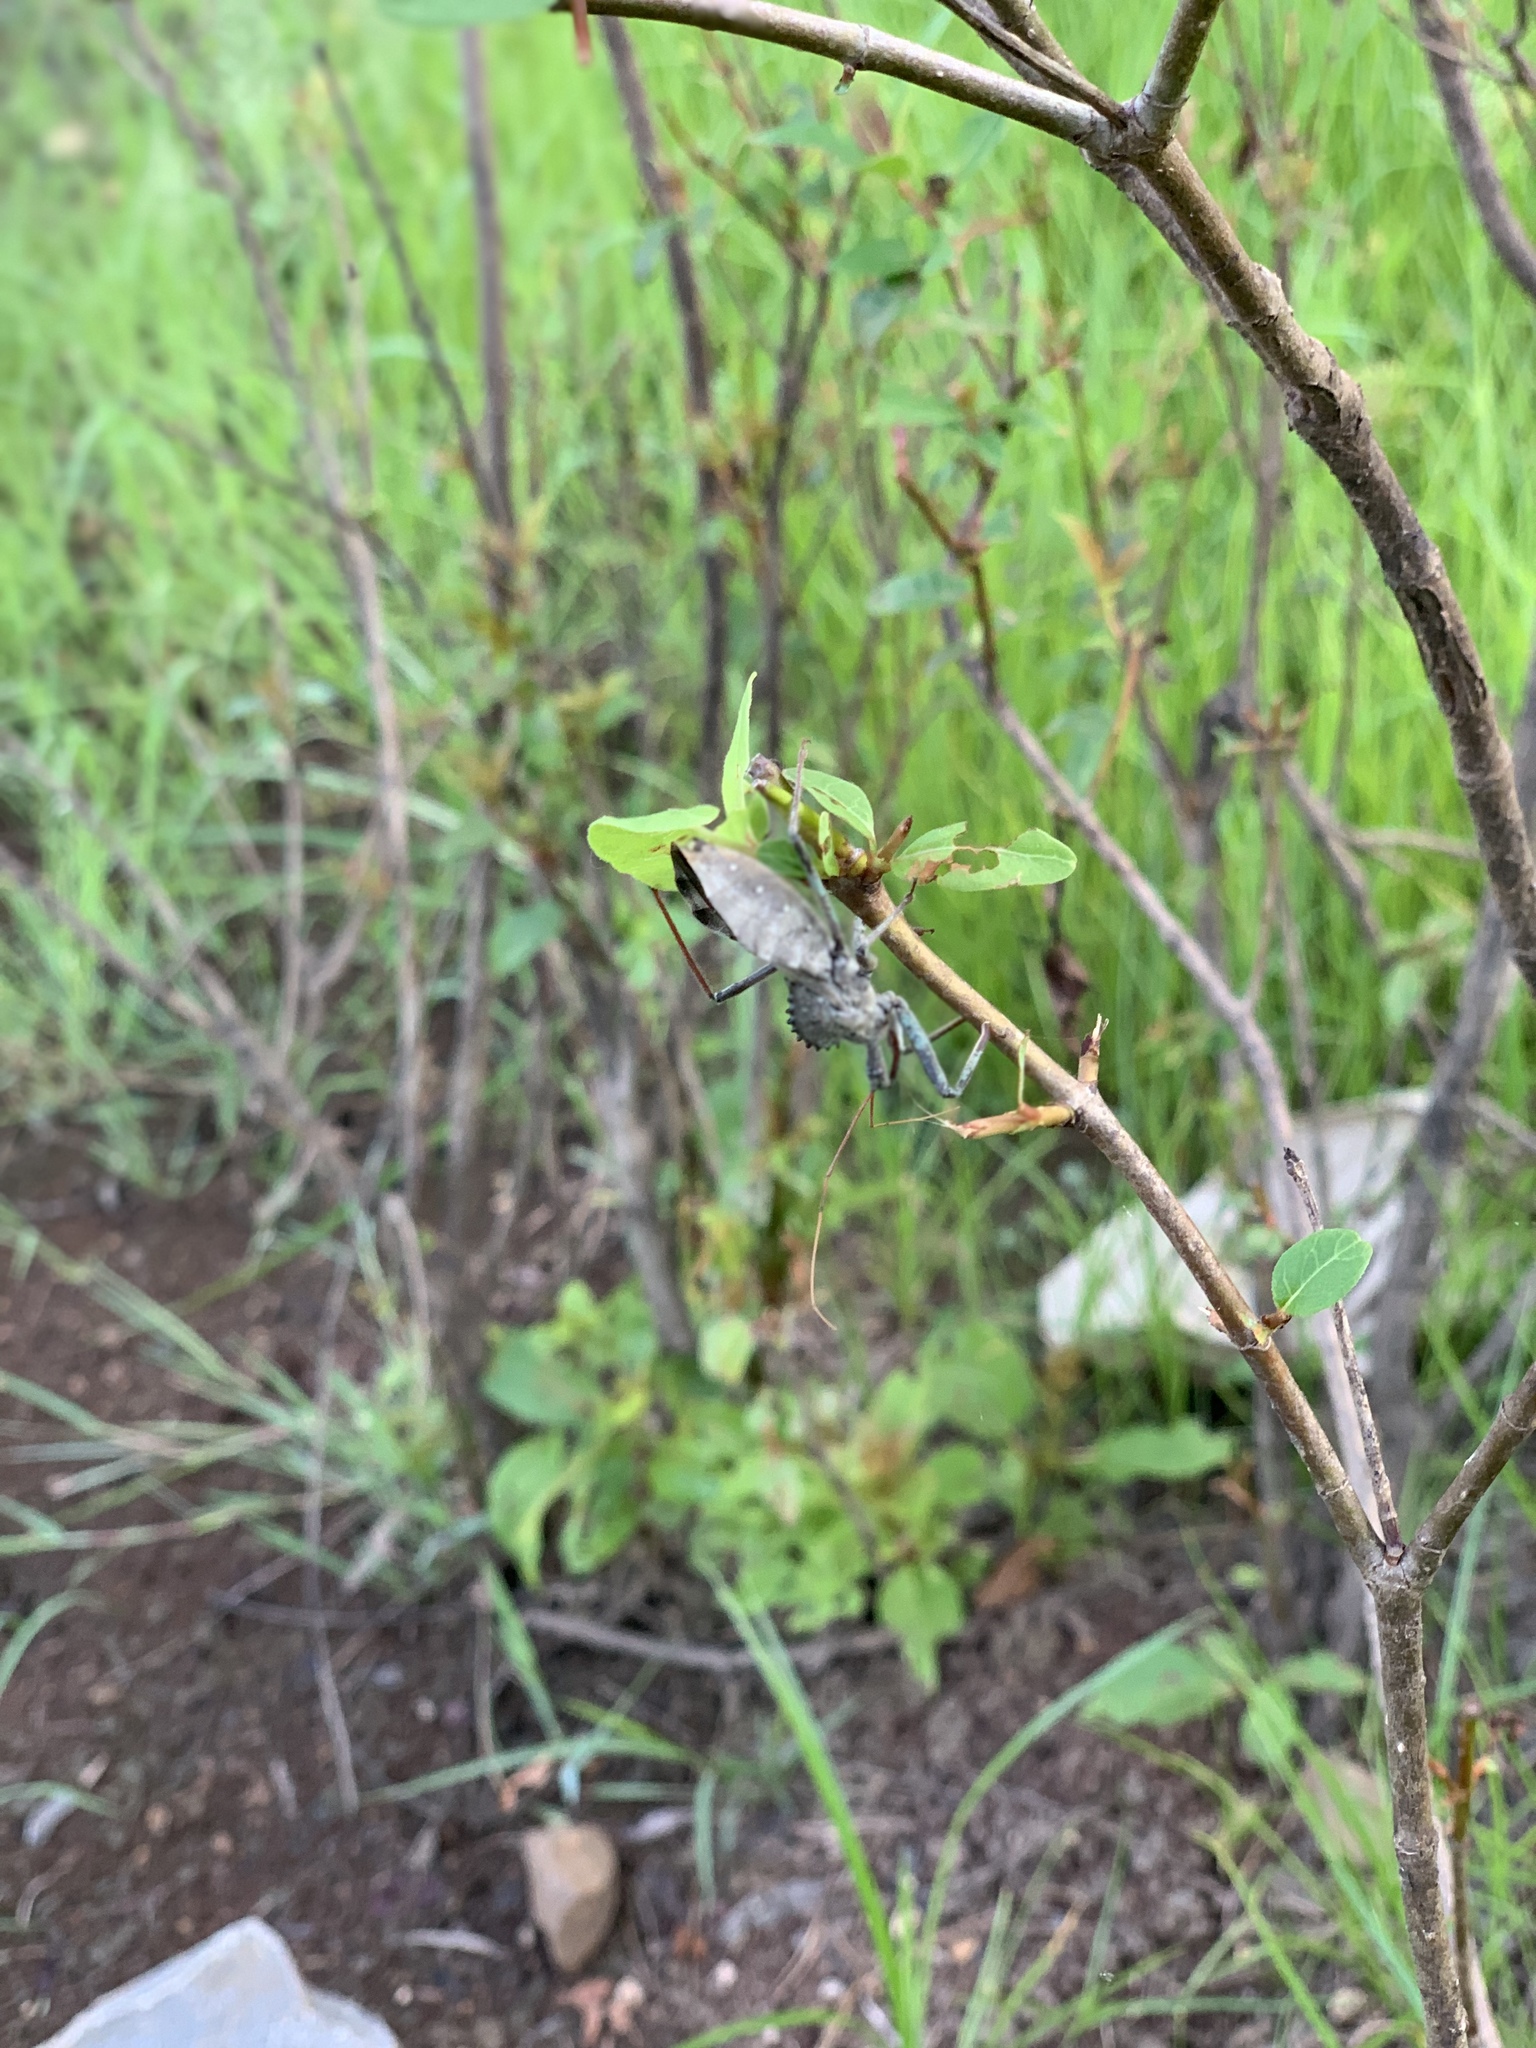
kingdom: Animalia
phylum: Arthropoda
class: Insecta
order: Hemiptera
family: Reduviidae
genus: Arilus
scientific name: Arilus cristatus
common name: North american wheel bug
